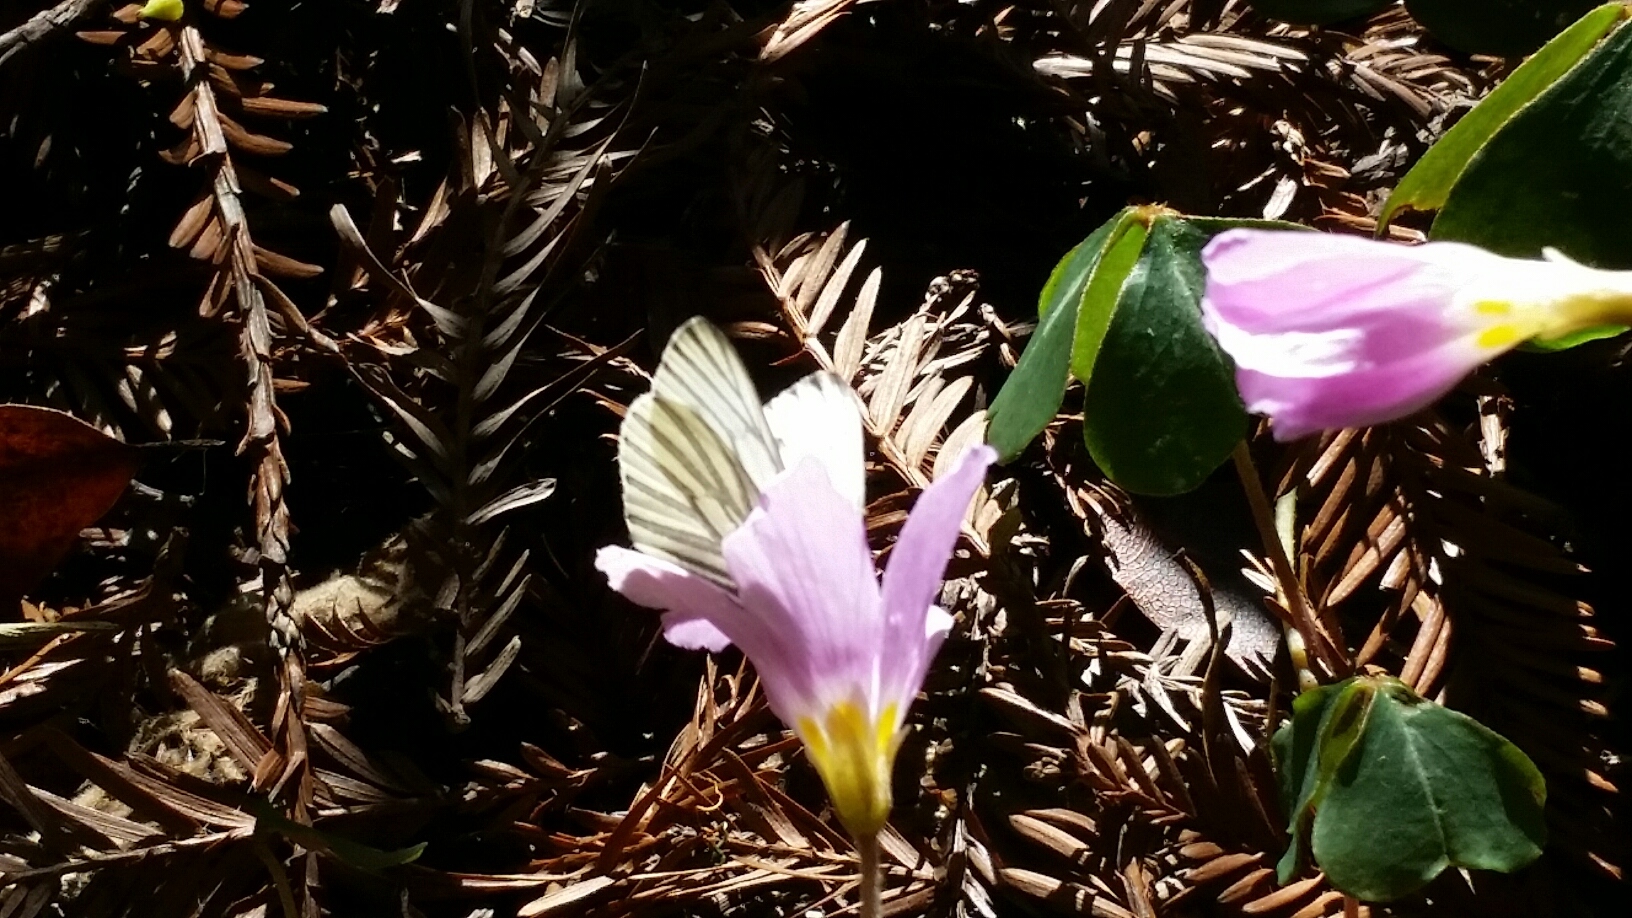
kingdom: Animalia
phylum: Arthropoda
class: Insecta
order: Lepidoptera
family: Pieridae
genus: Pieris
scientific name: Pieris marginalis
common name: Margined white
